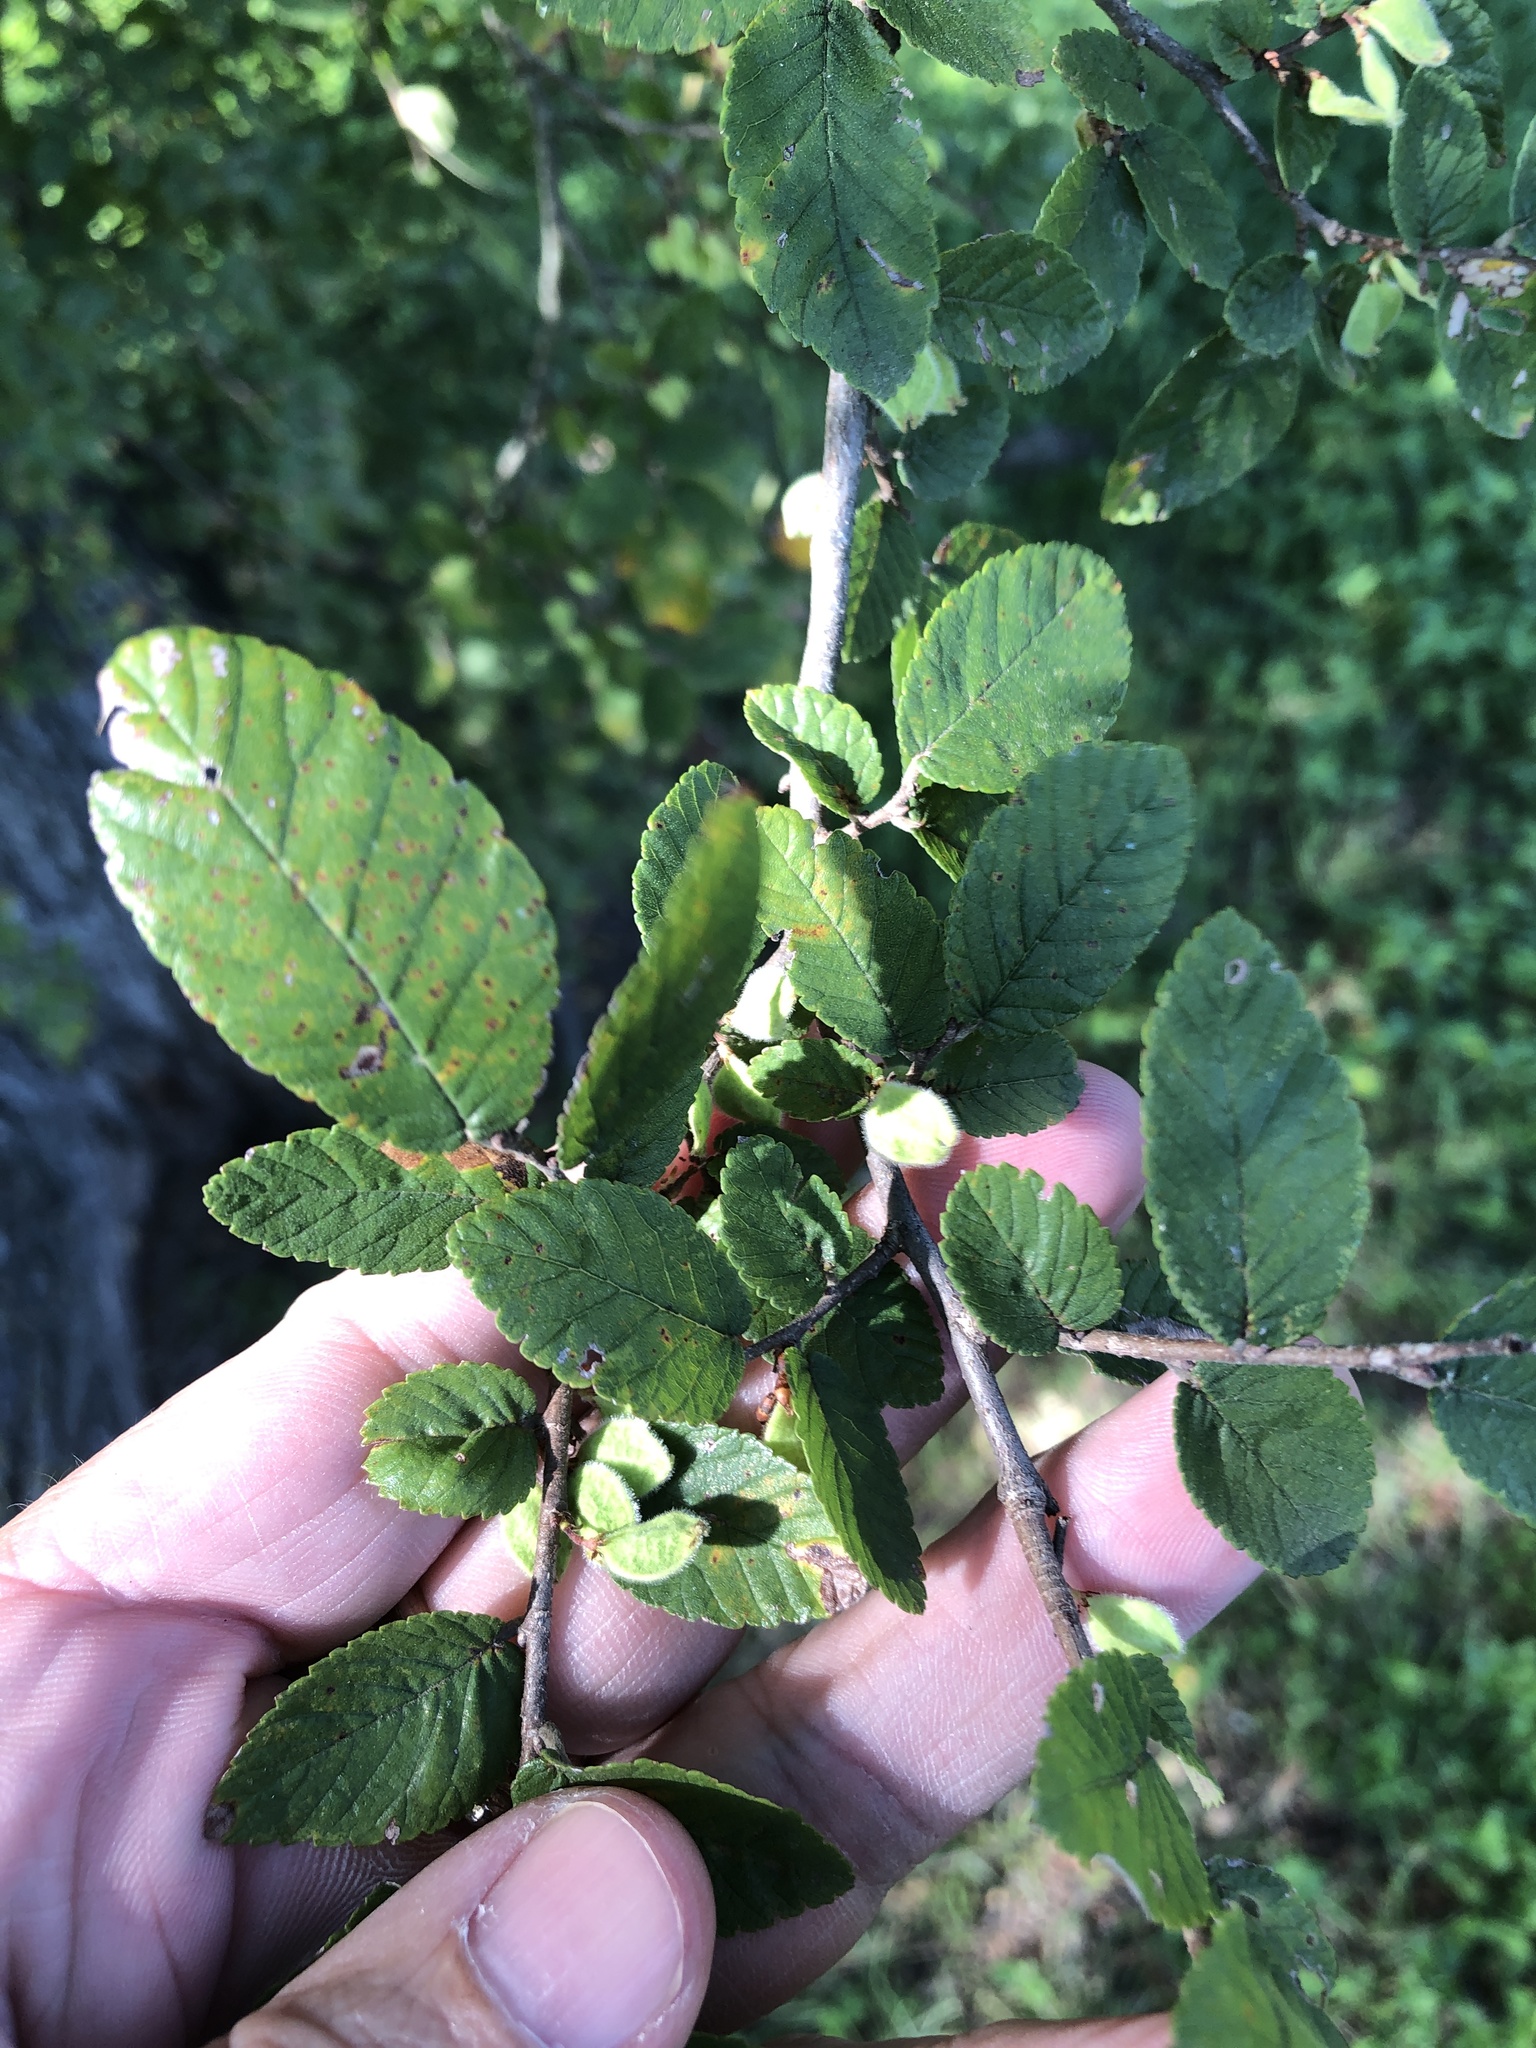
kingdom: Plantae
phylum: Tracheophyta
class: Magnoliopsida
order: Rosales
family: Ulmaceae
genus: Ulmus
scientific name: Ulmus crassifolia
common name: Basket elm
